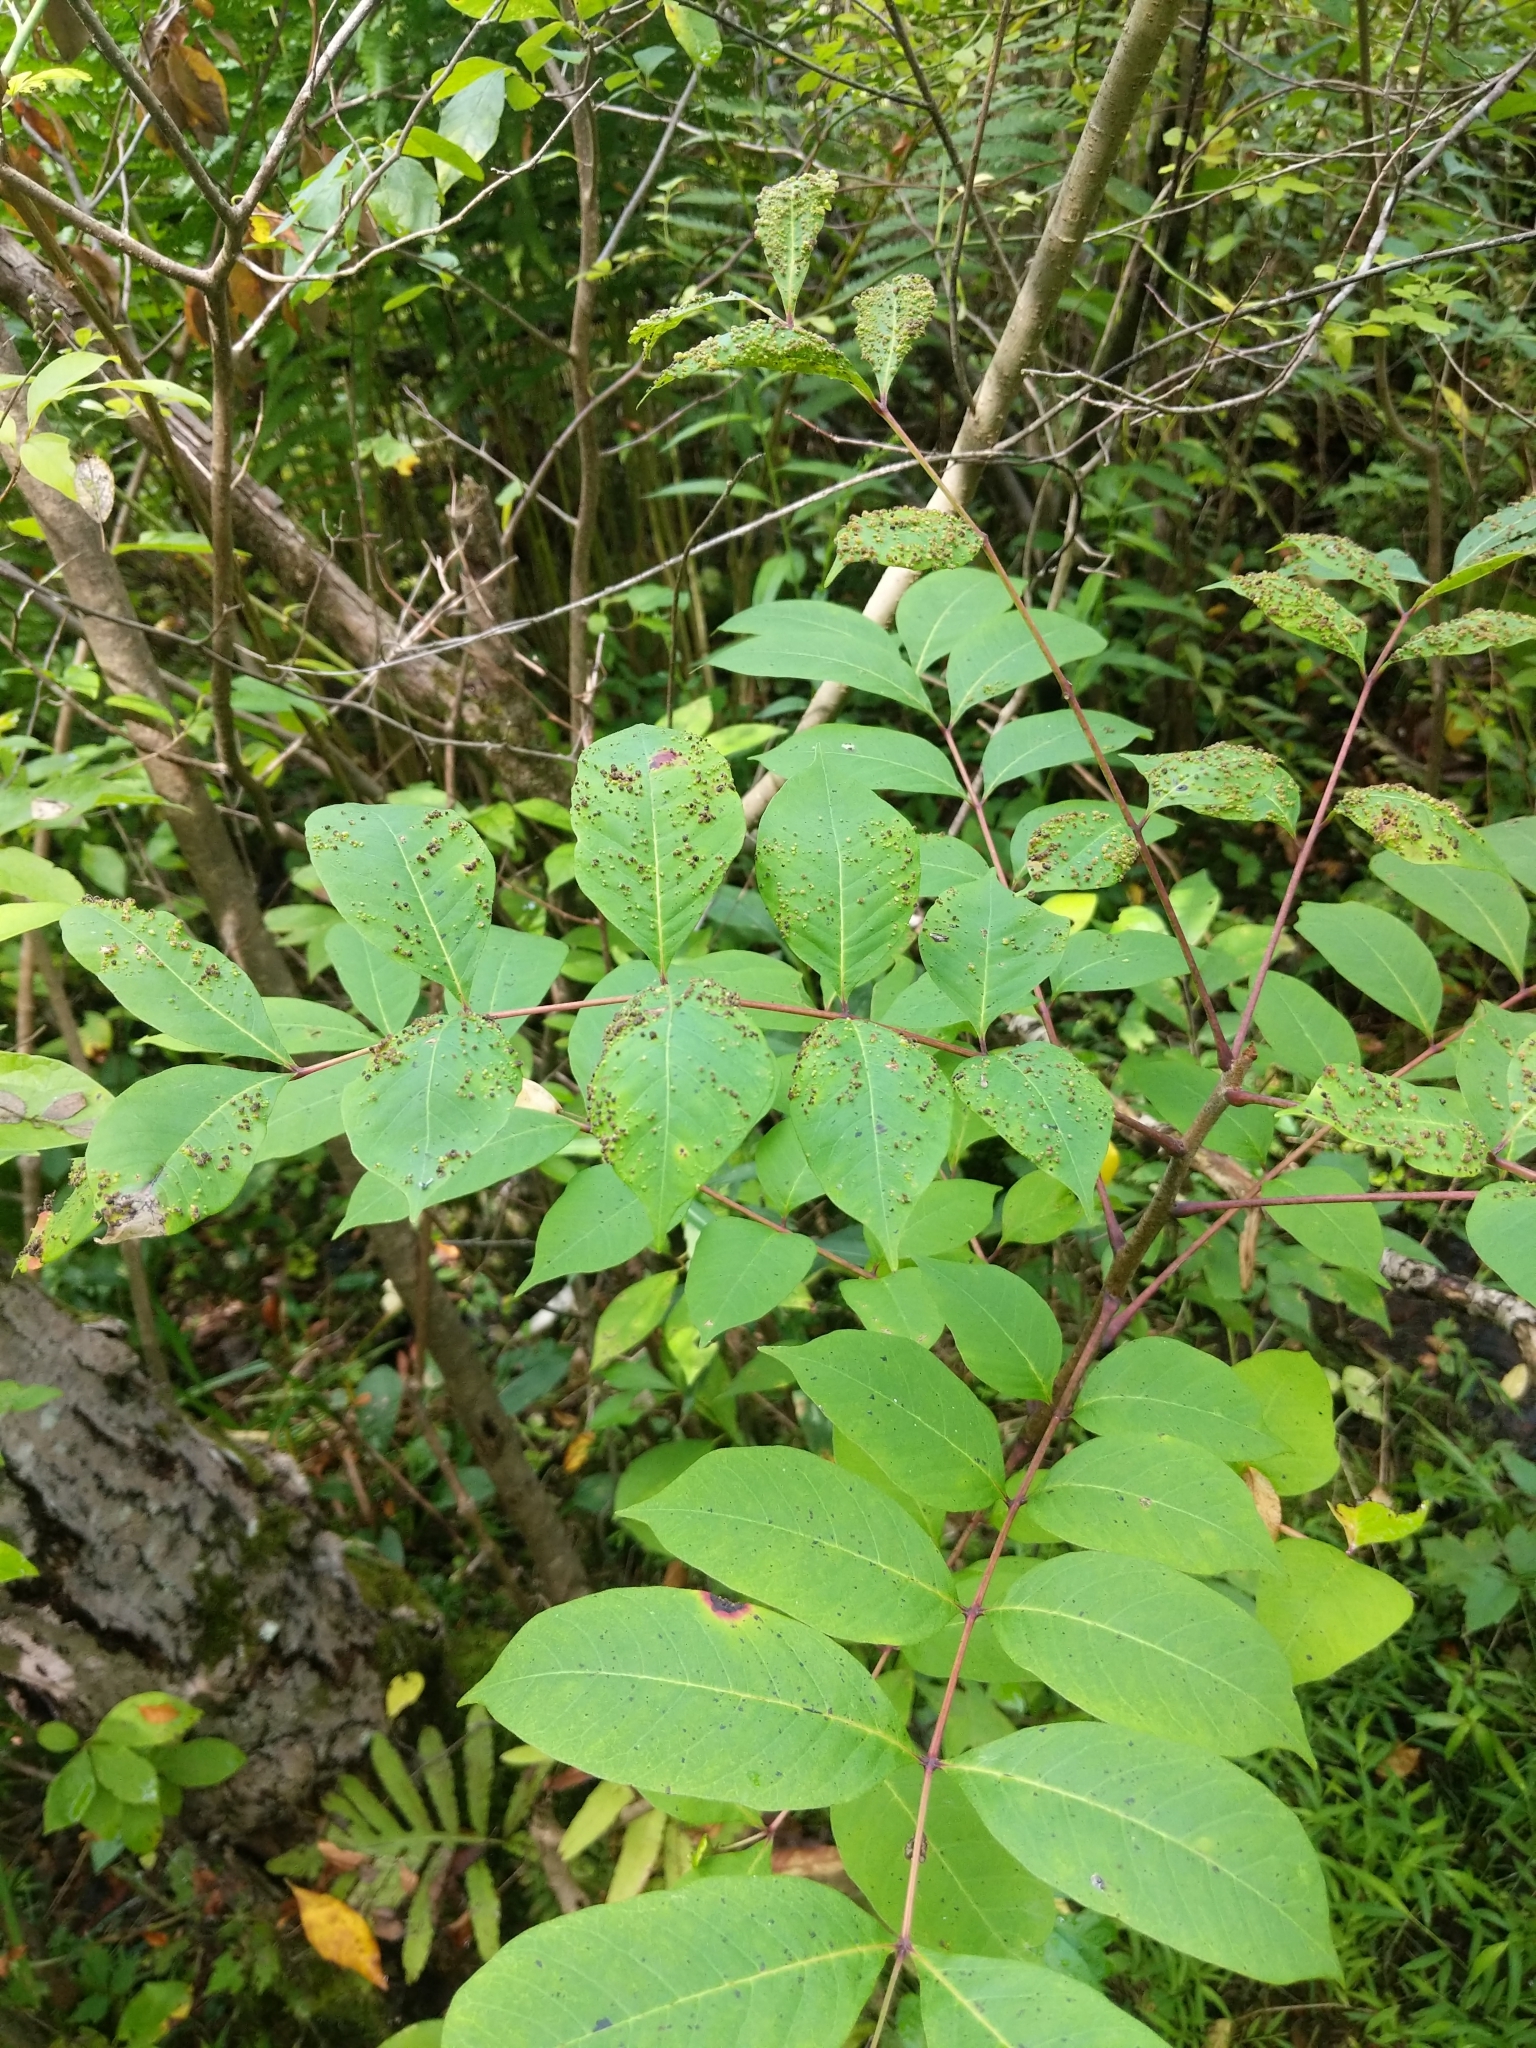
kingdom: Plantae
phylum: Tracheophyta
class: Magnoliopsida
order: Sapindales
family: Anacardiaceae
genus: Toxicodendron
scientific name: Toxicodendron vernix
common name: Poison sumac
